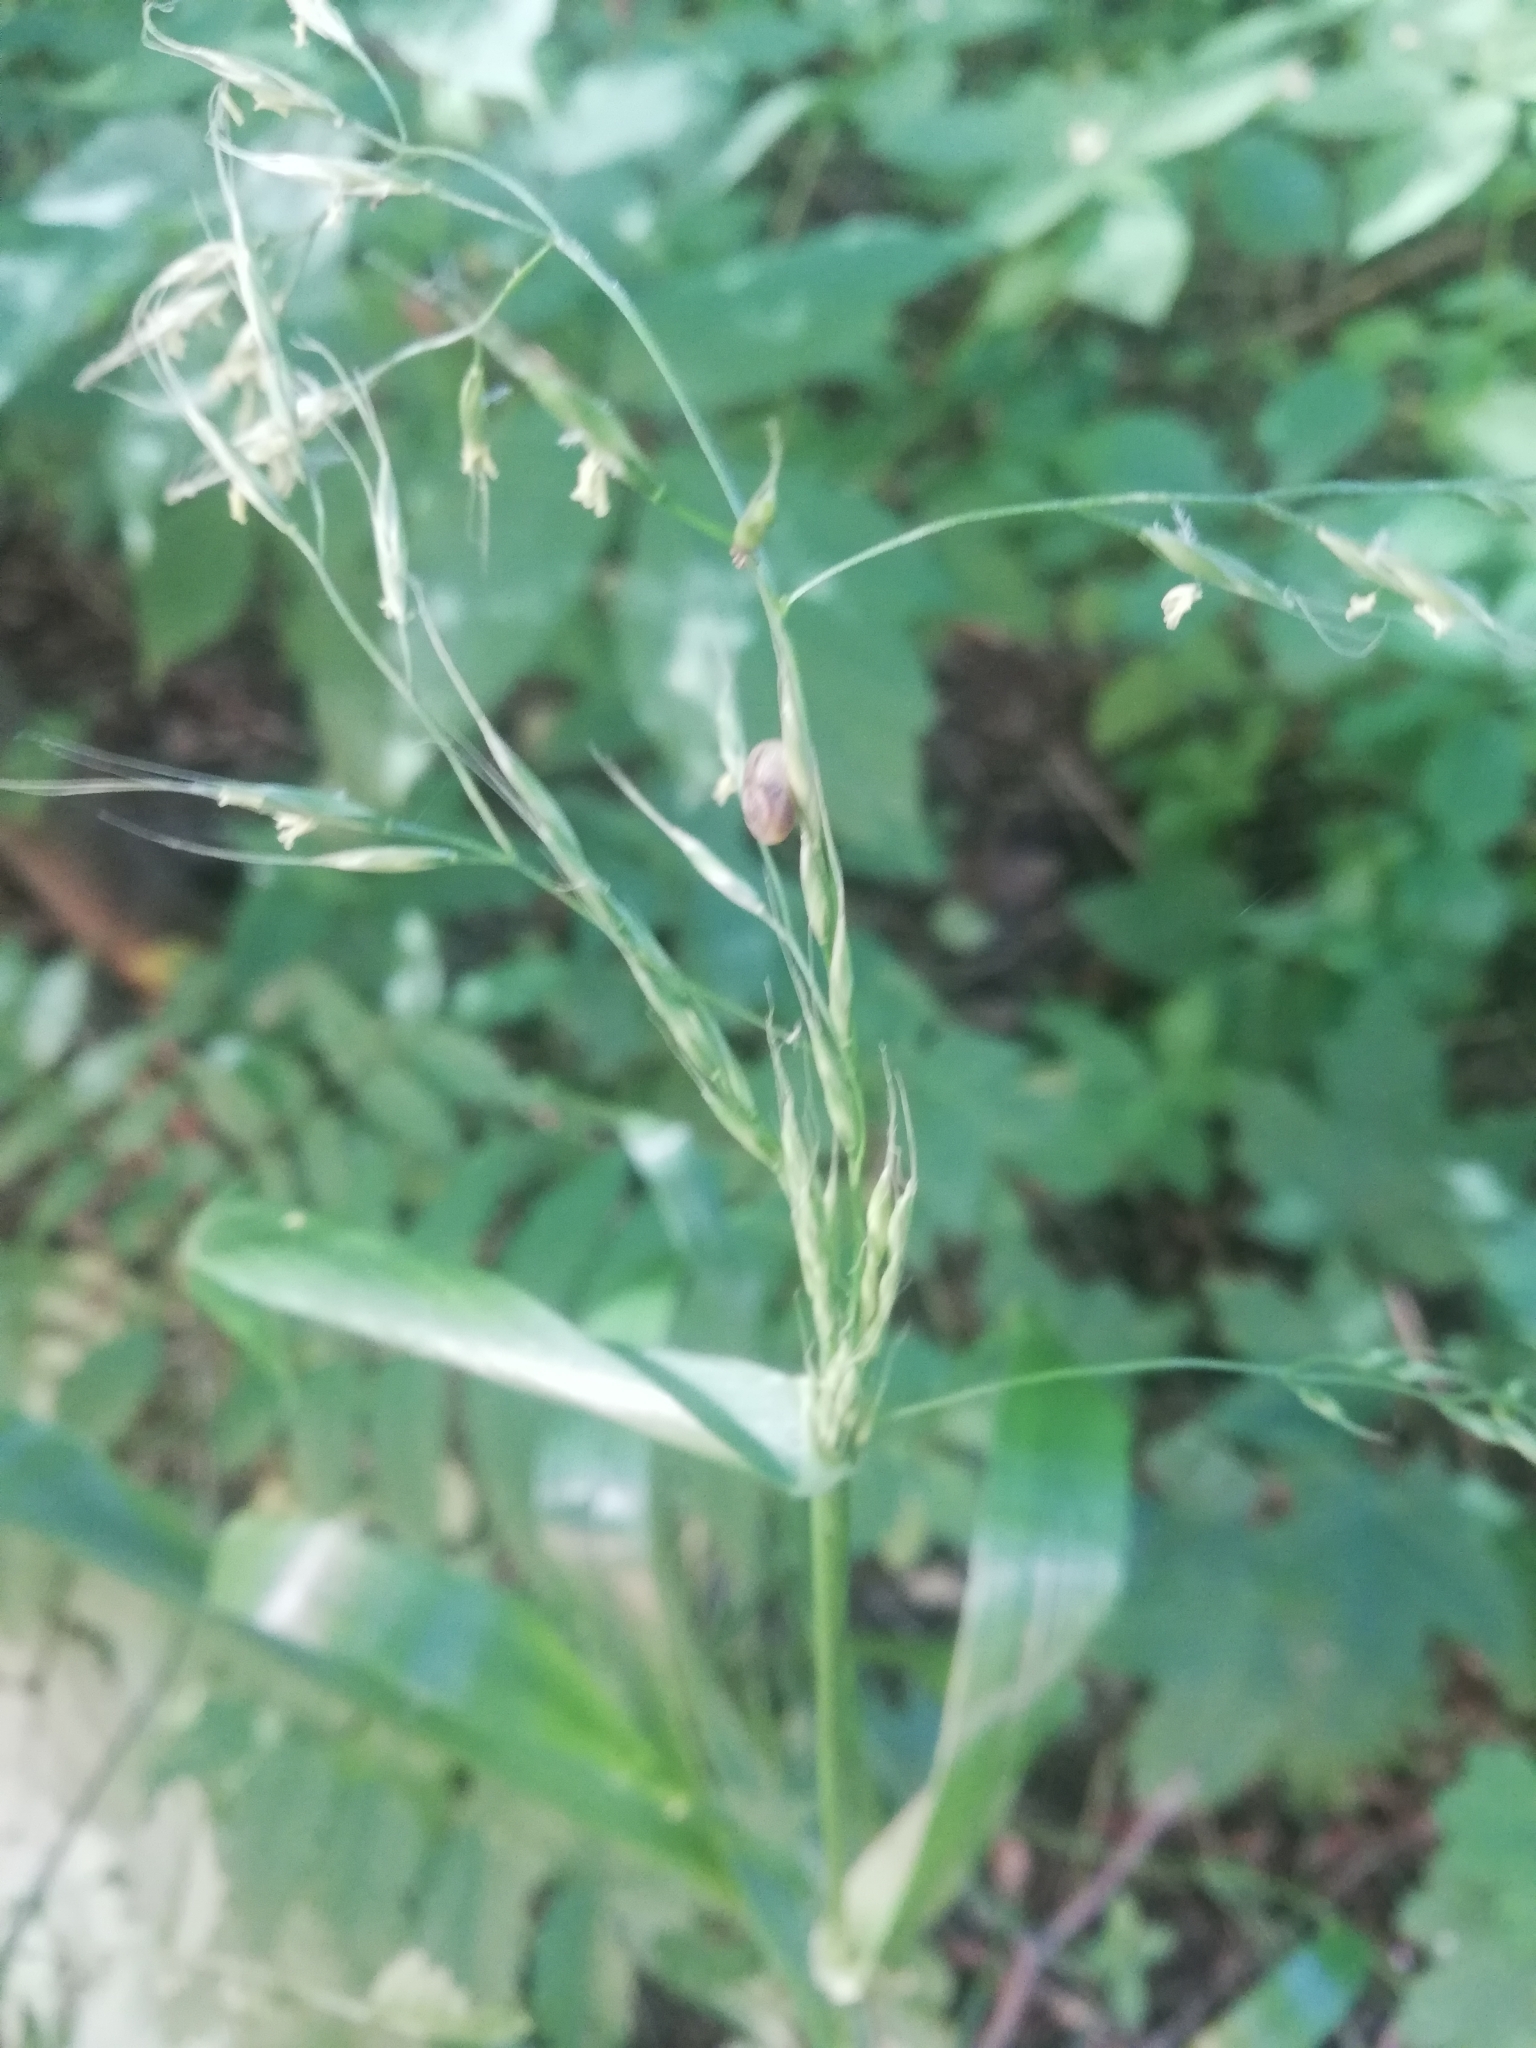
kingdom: Plantae
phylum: Tracheophyta
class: Liliopsida
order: Poales
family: Poaceae
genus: Lolium
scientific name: Lolium giganteum
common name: Giant fescue
